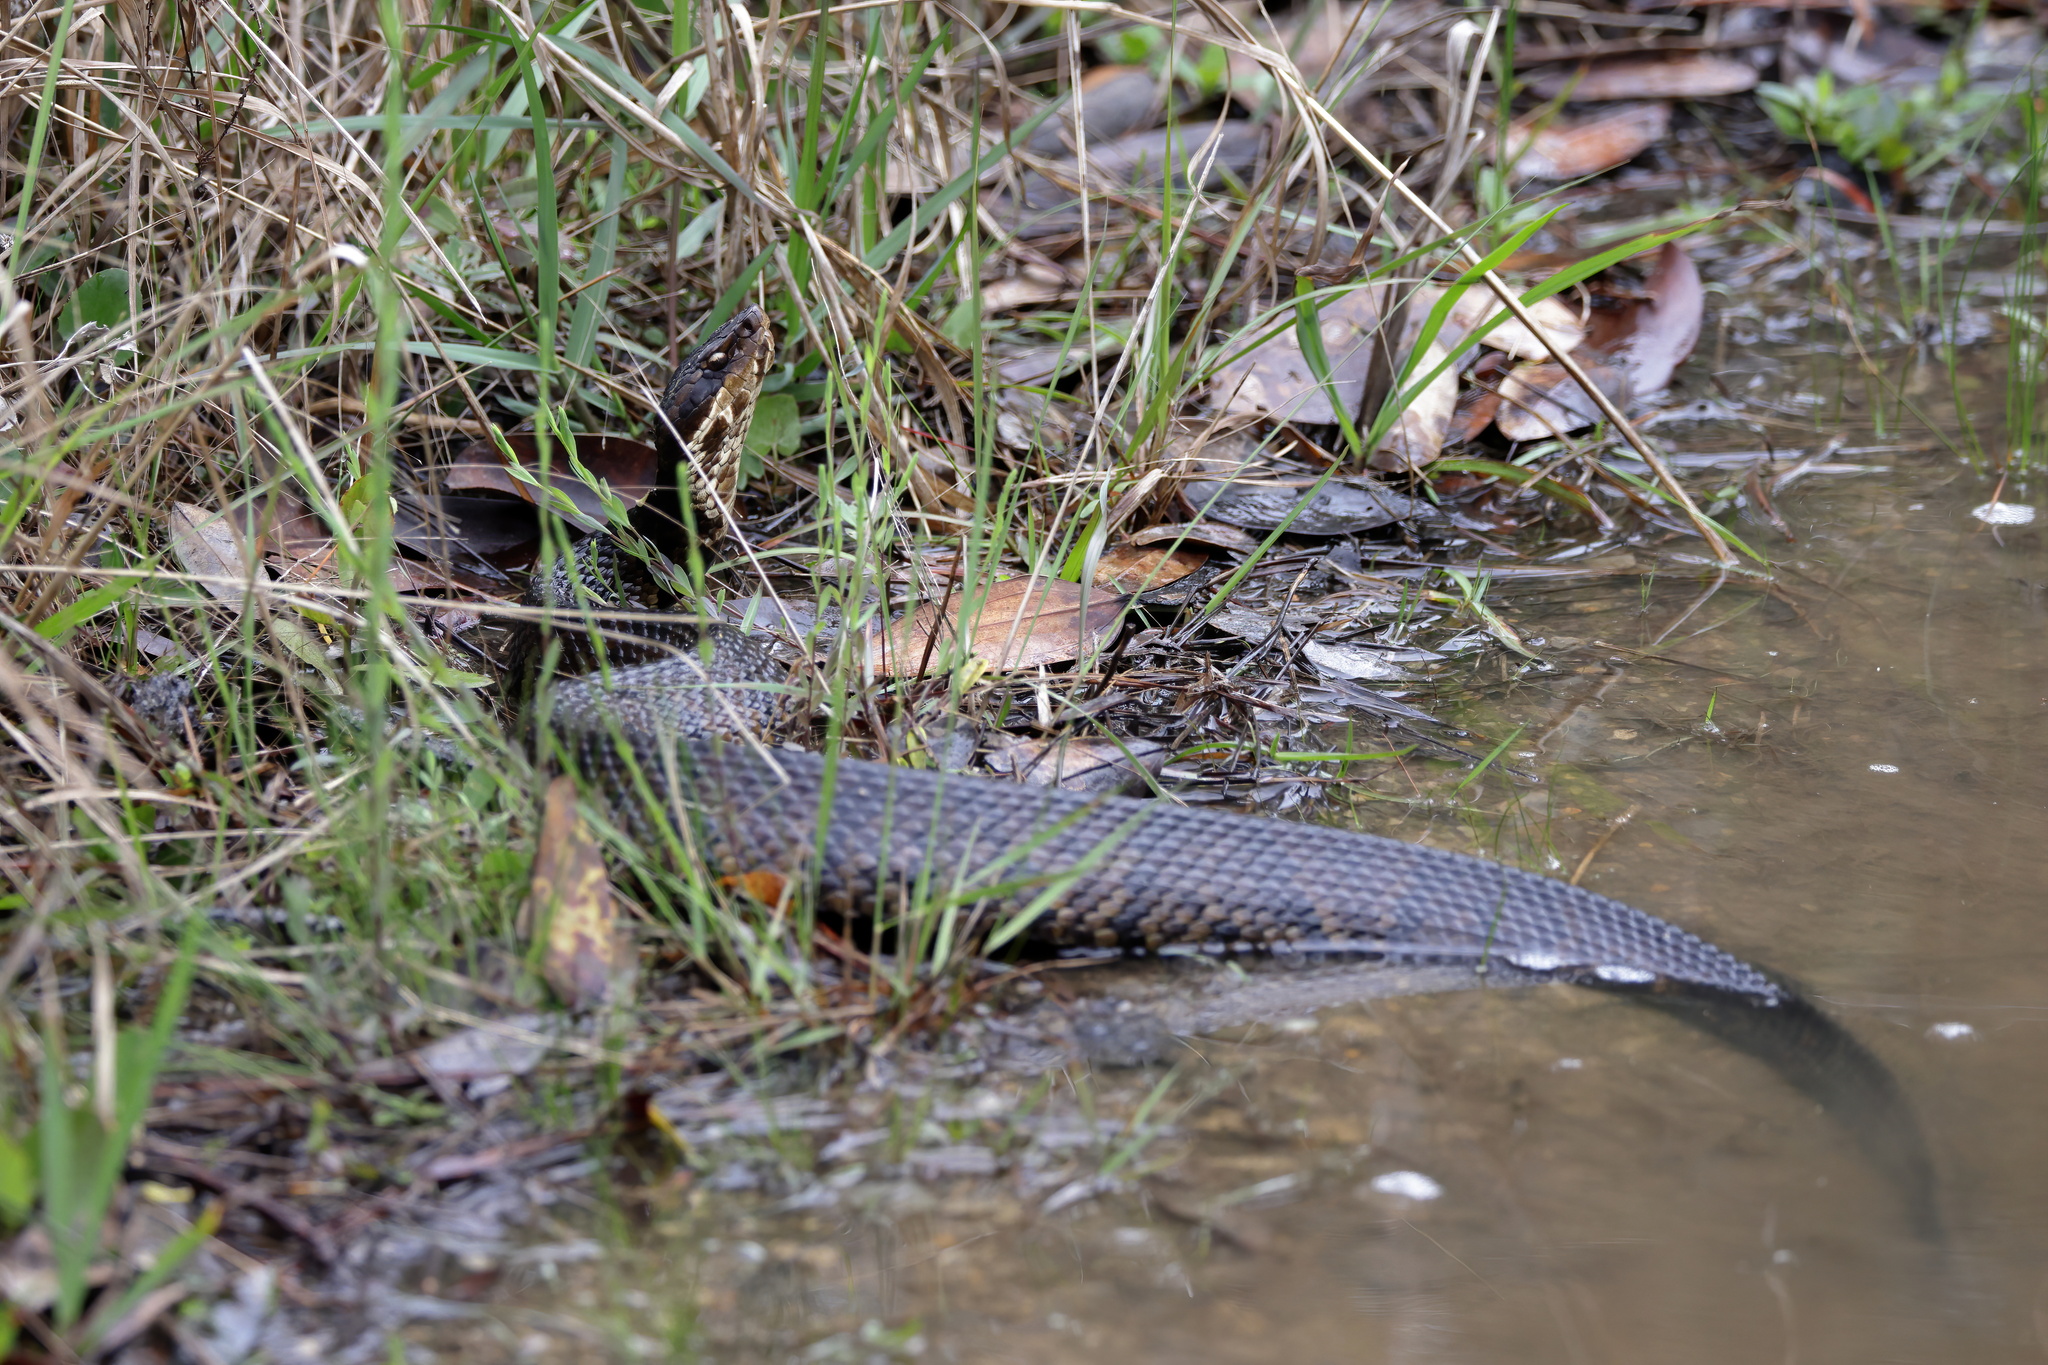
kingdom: Animalia
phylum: Chordata
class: Squamata
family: Viperidae
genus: Agkistrodon
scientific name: Agkistrodon piscivorus
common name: Cottonmouth
